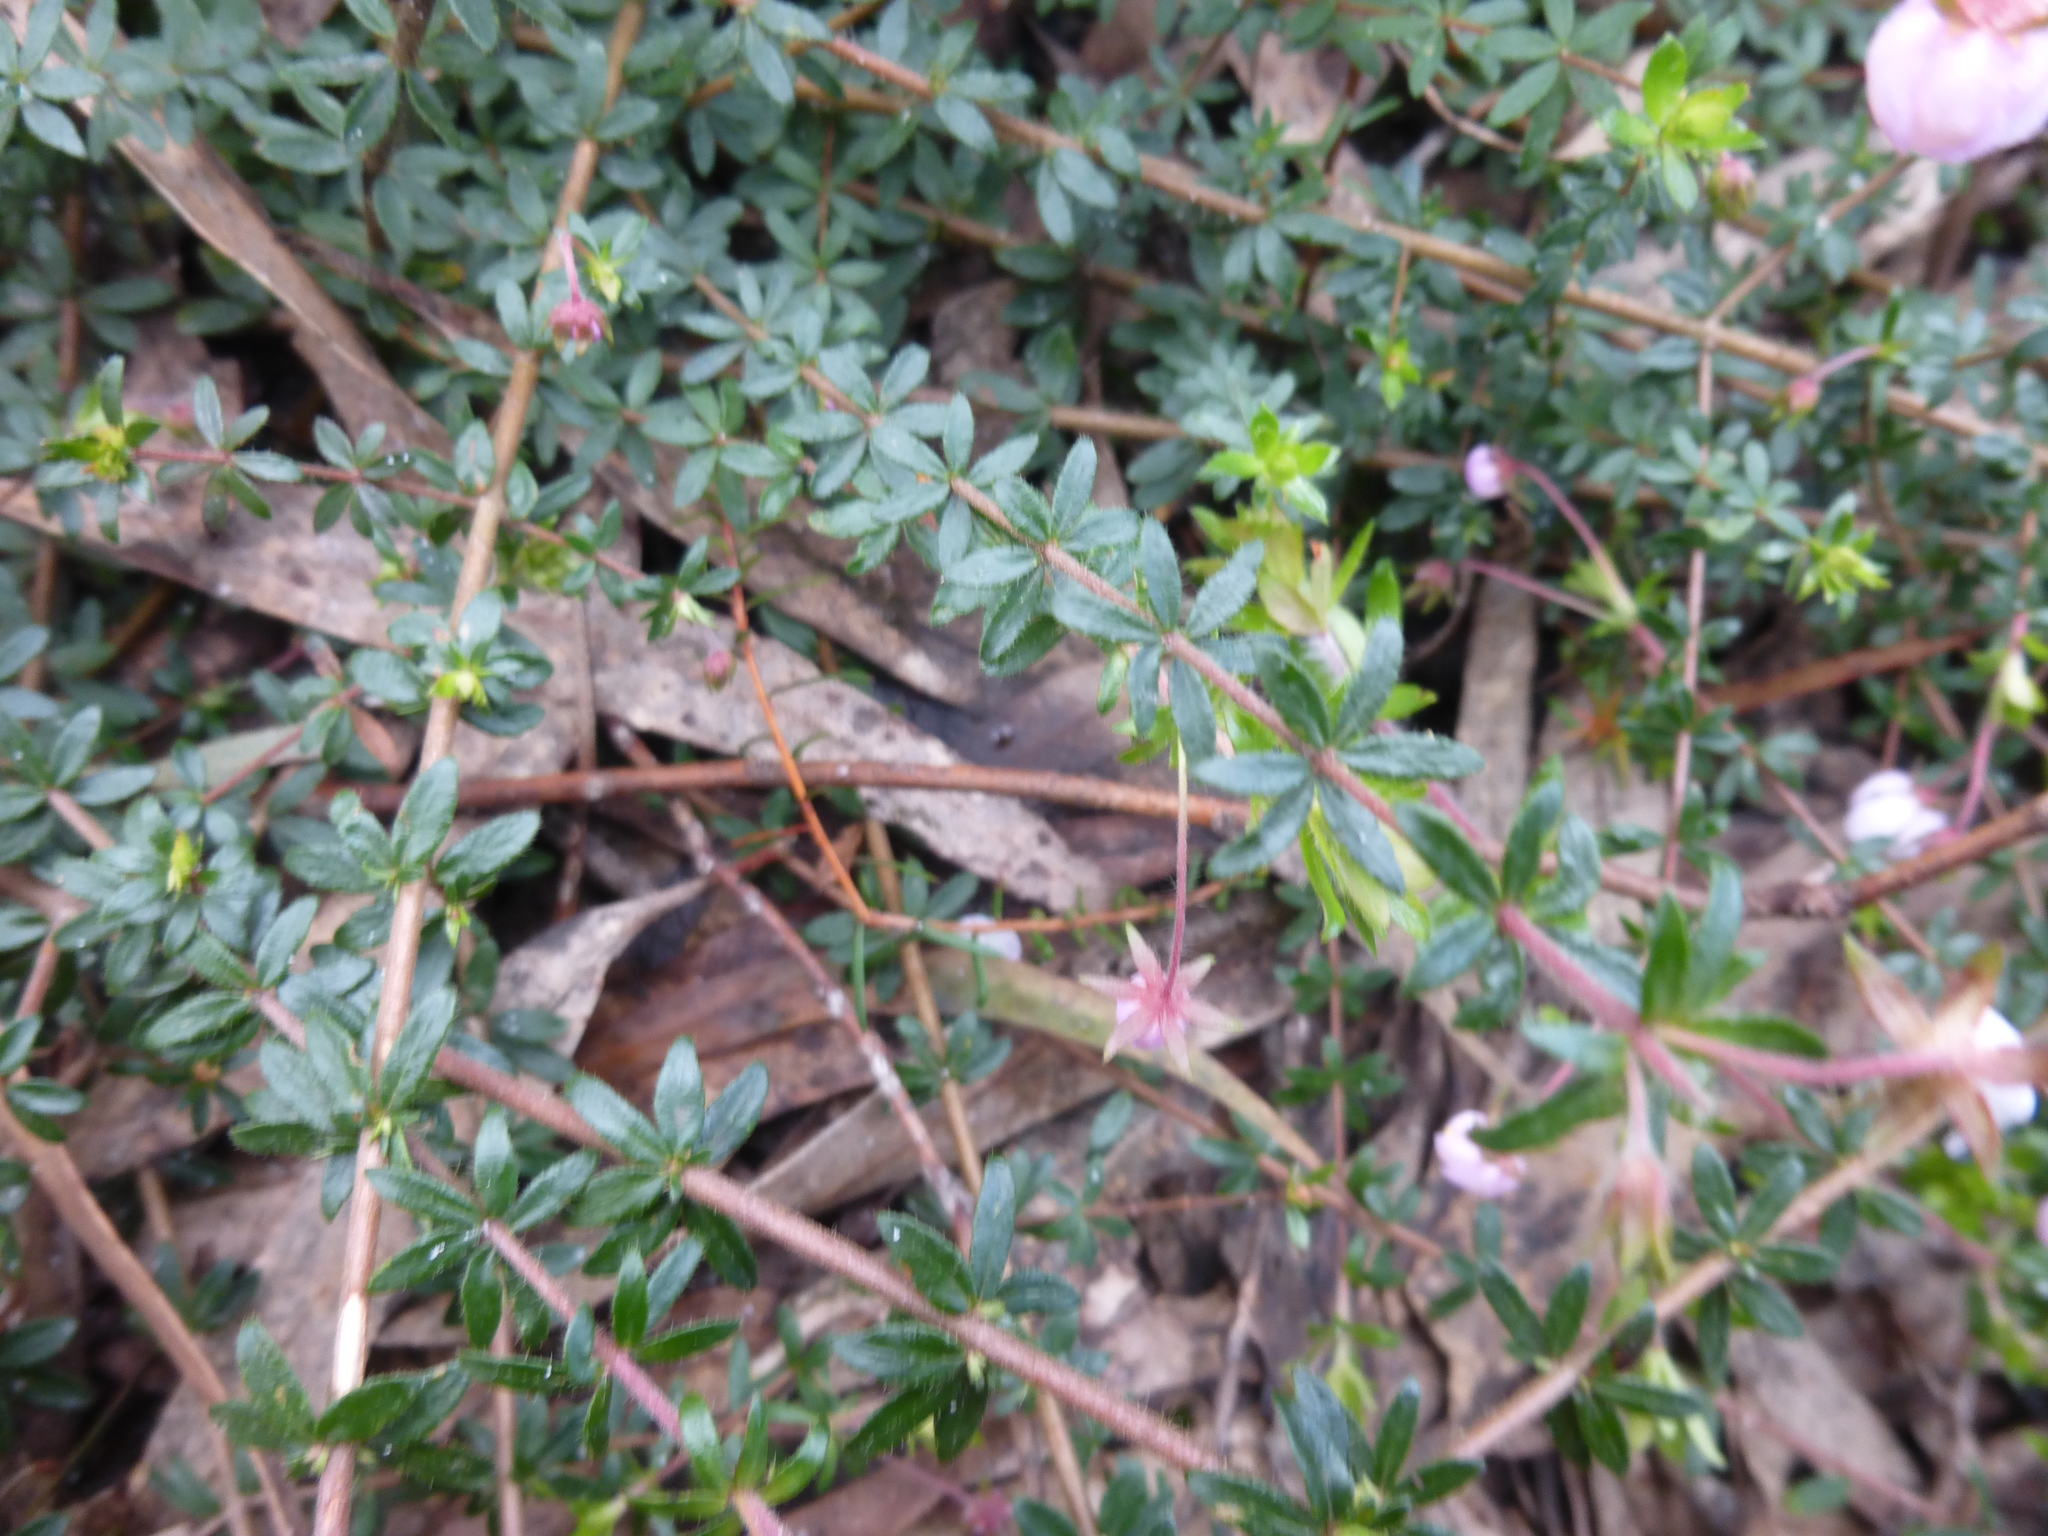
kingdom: Plantae
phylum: Tracheophyta
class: Magnoliopsida
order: Oxalidales
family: Cunoniaceae
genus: Bauera
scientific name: Bauera rubioides
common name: River-rose
